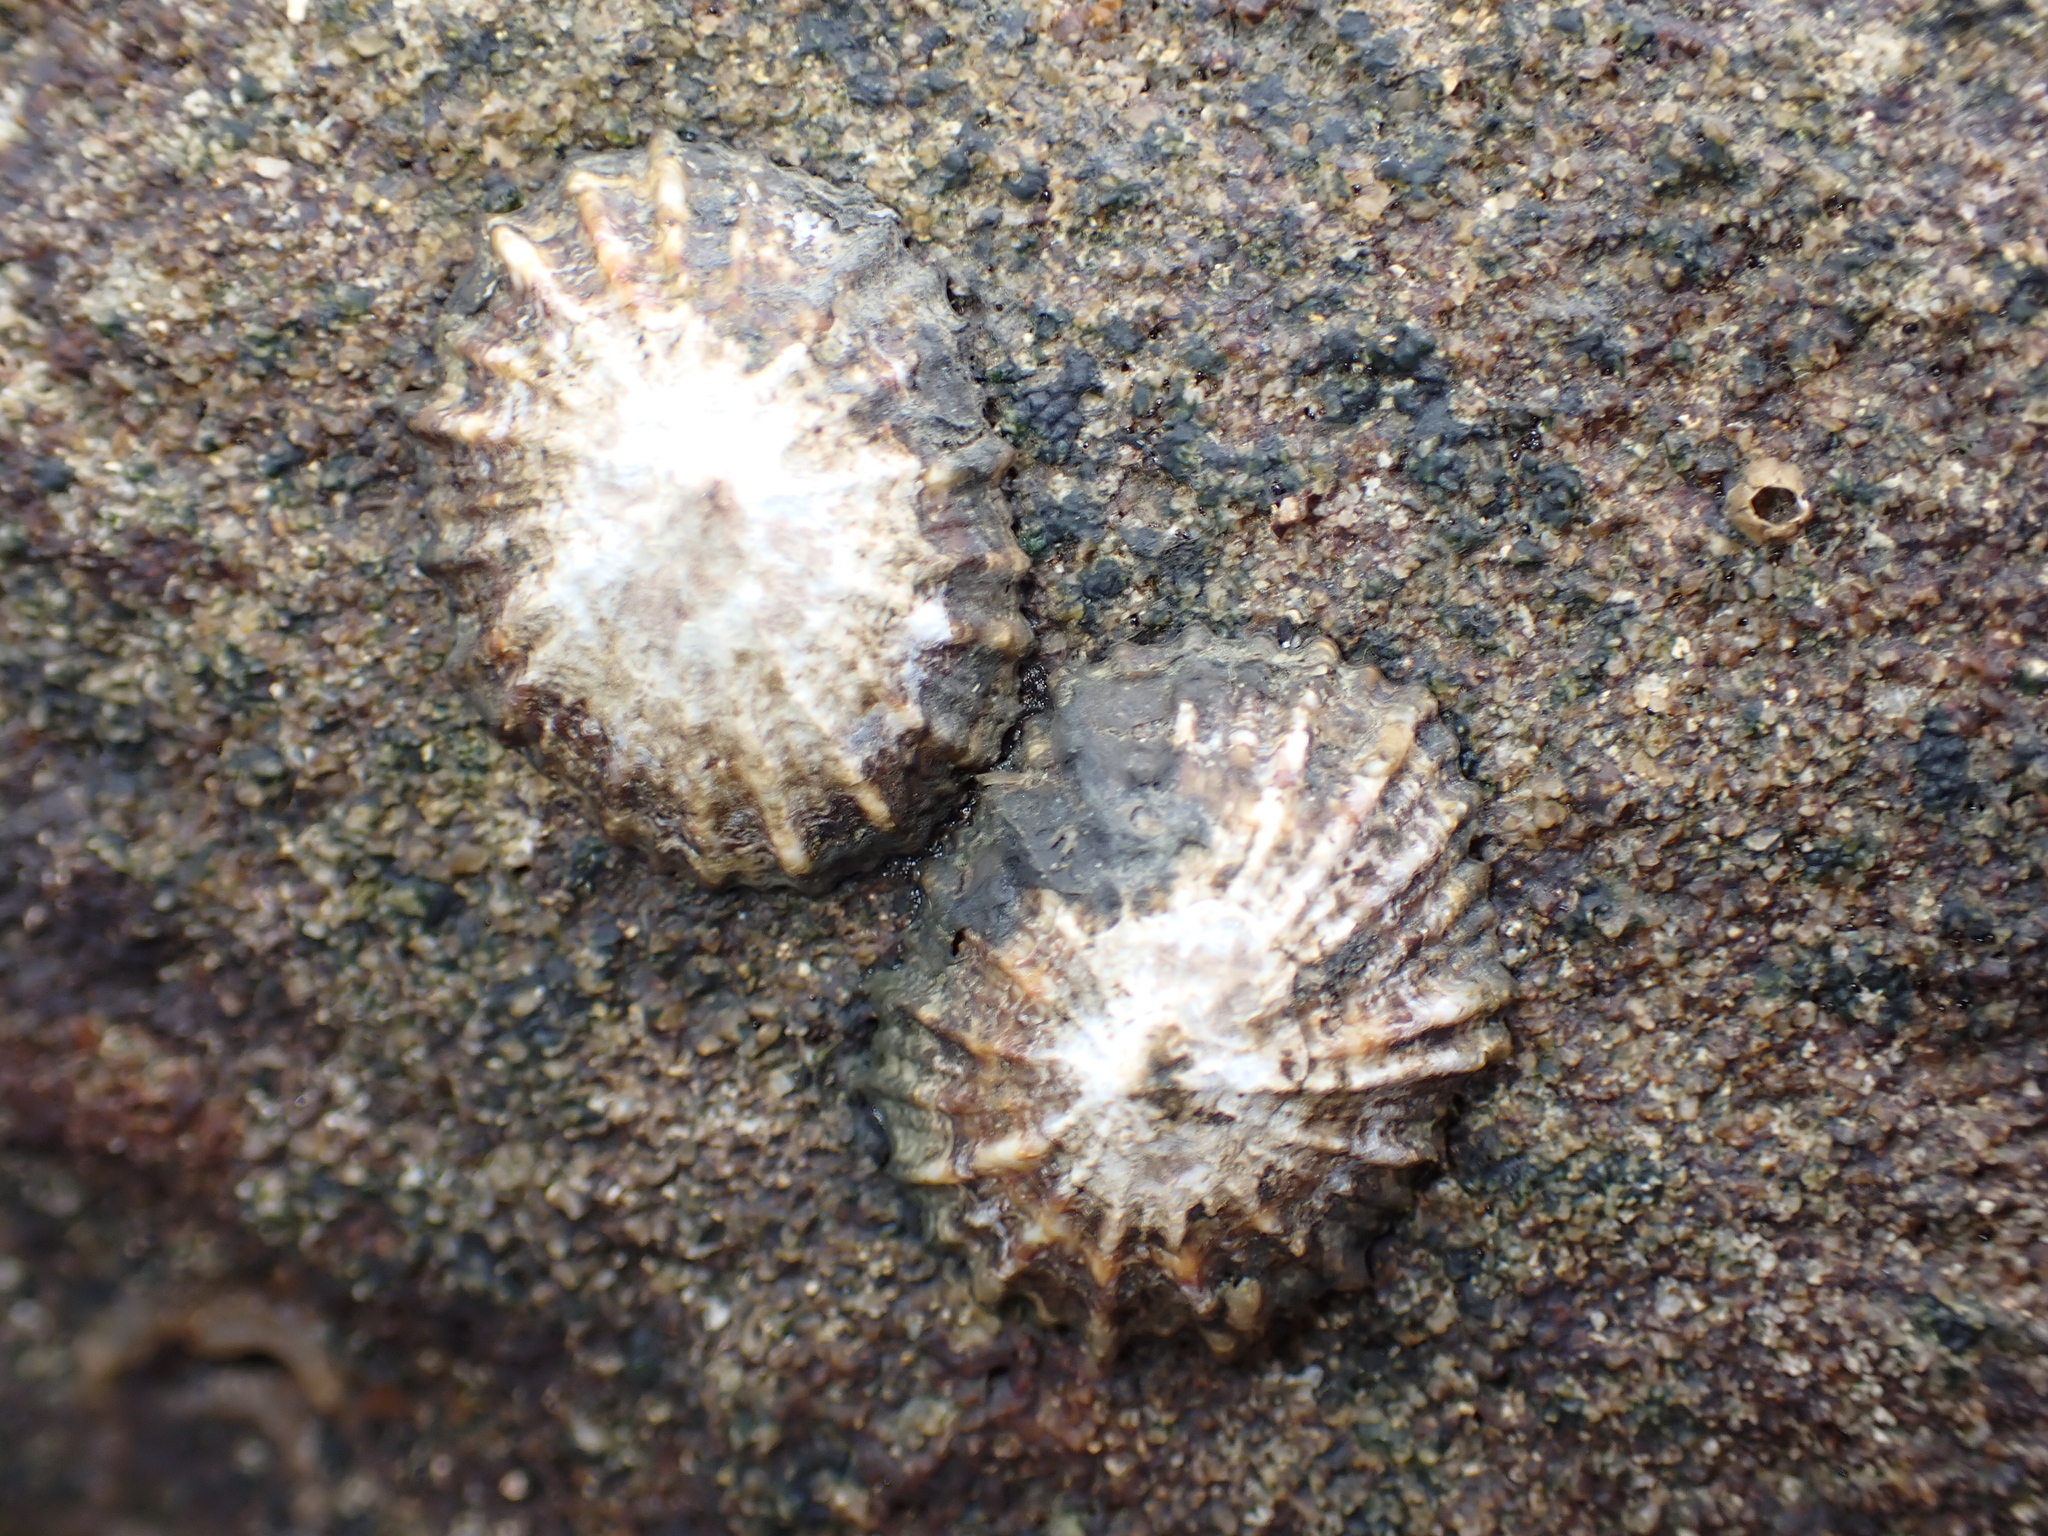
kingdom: Animalia
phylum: Mollusca
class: Gastropoda
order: Siphonariida
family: Siphonariidae
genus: Siphonaria
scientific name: Siphonaria denticulata
